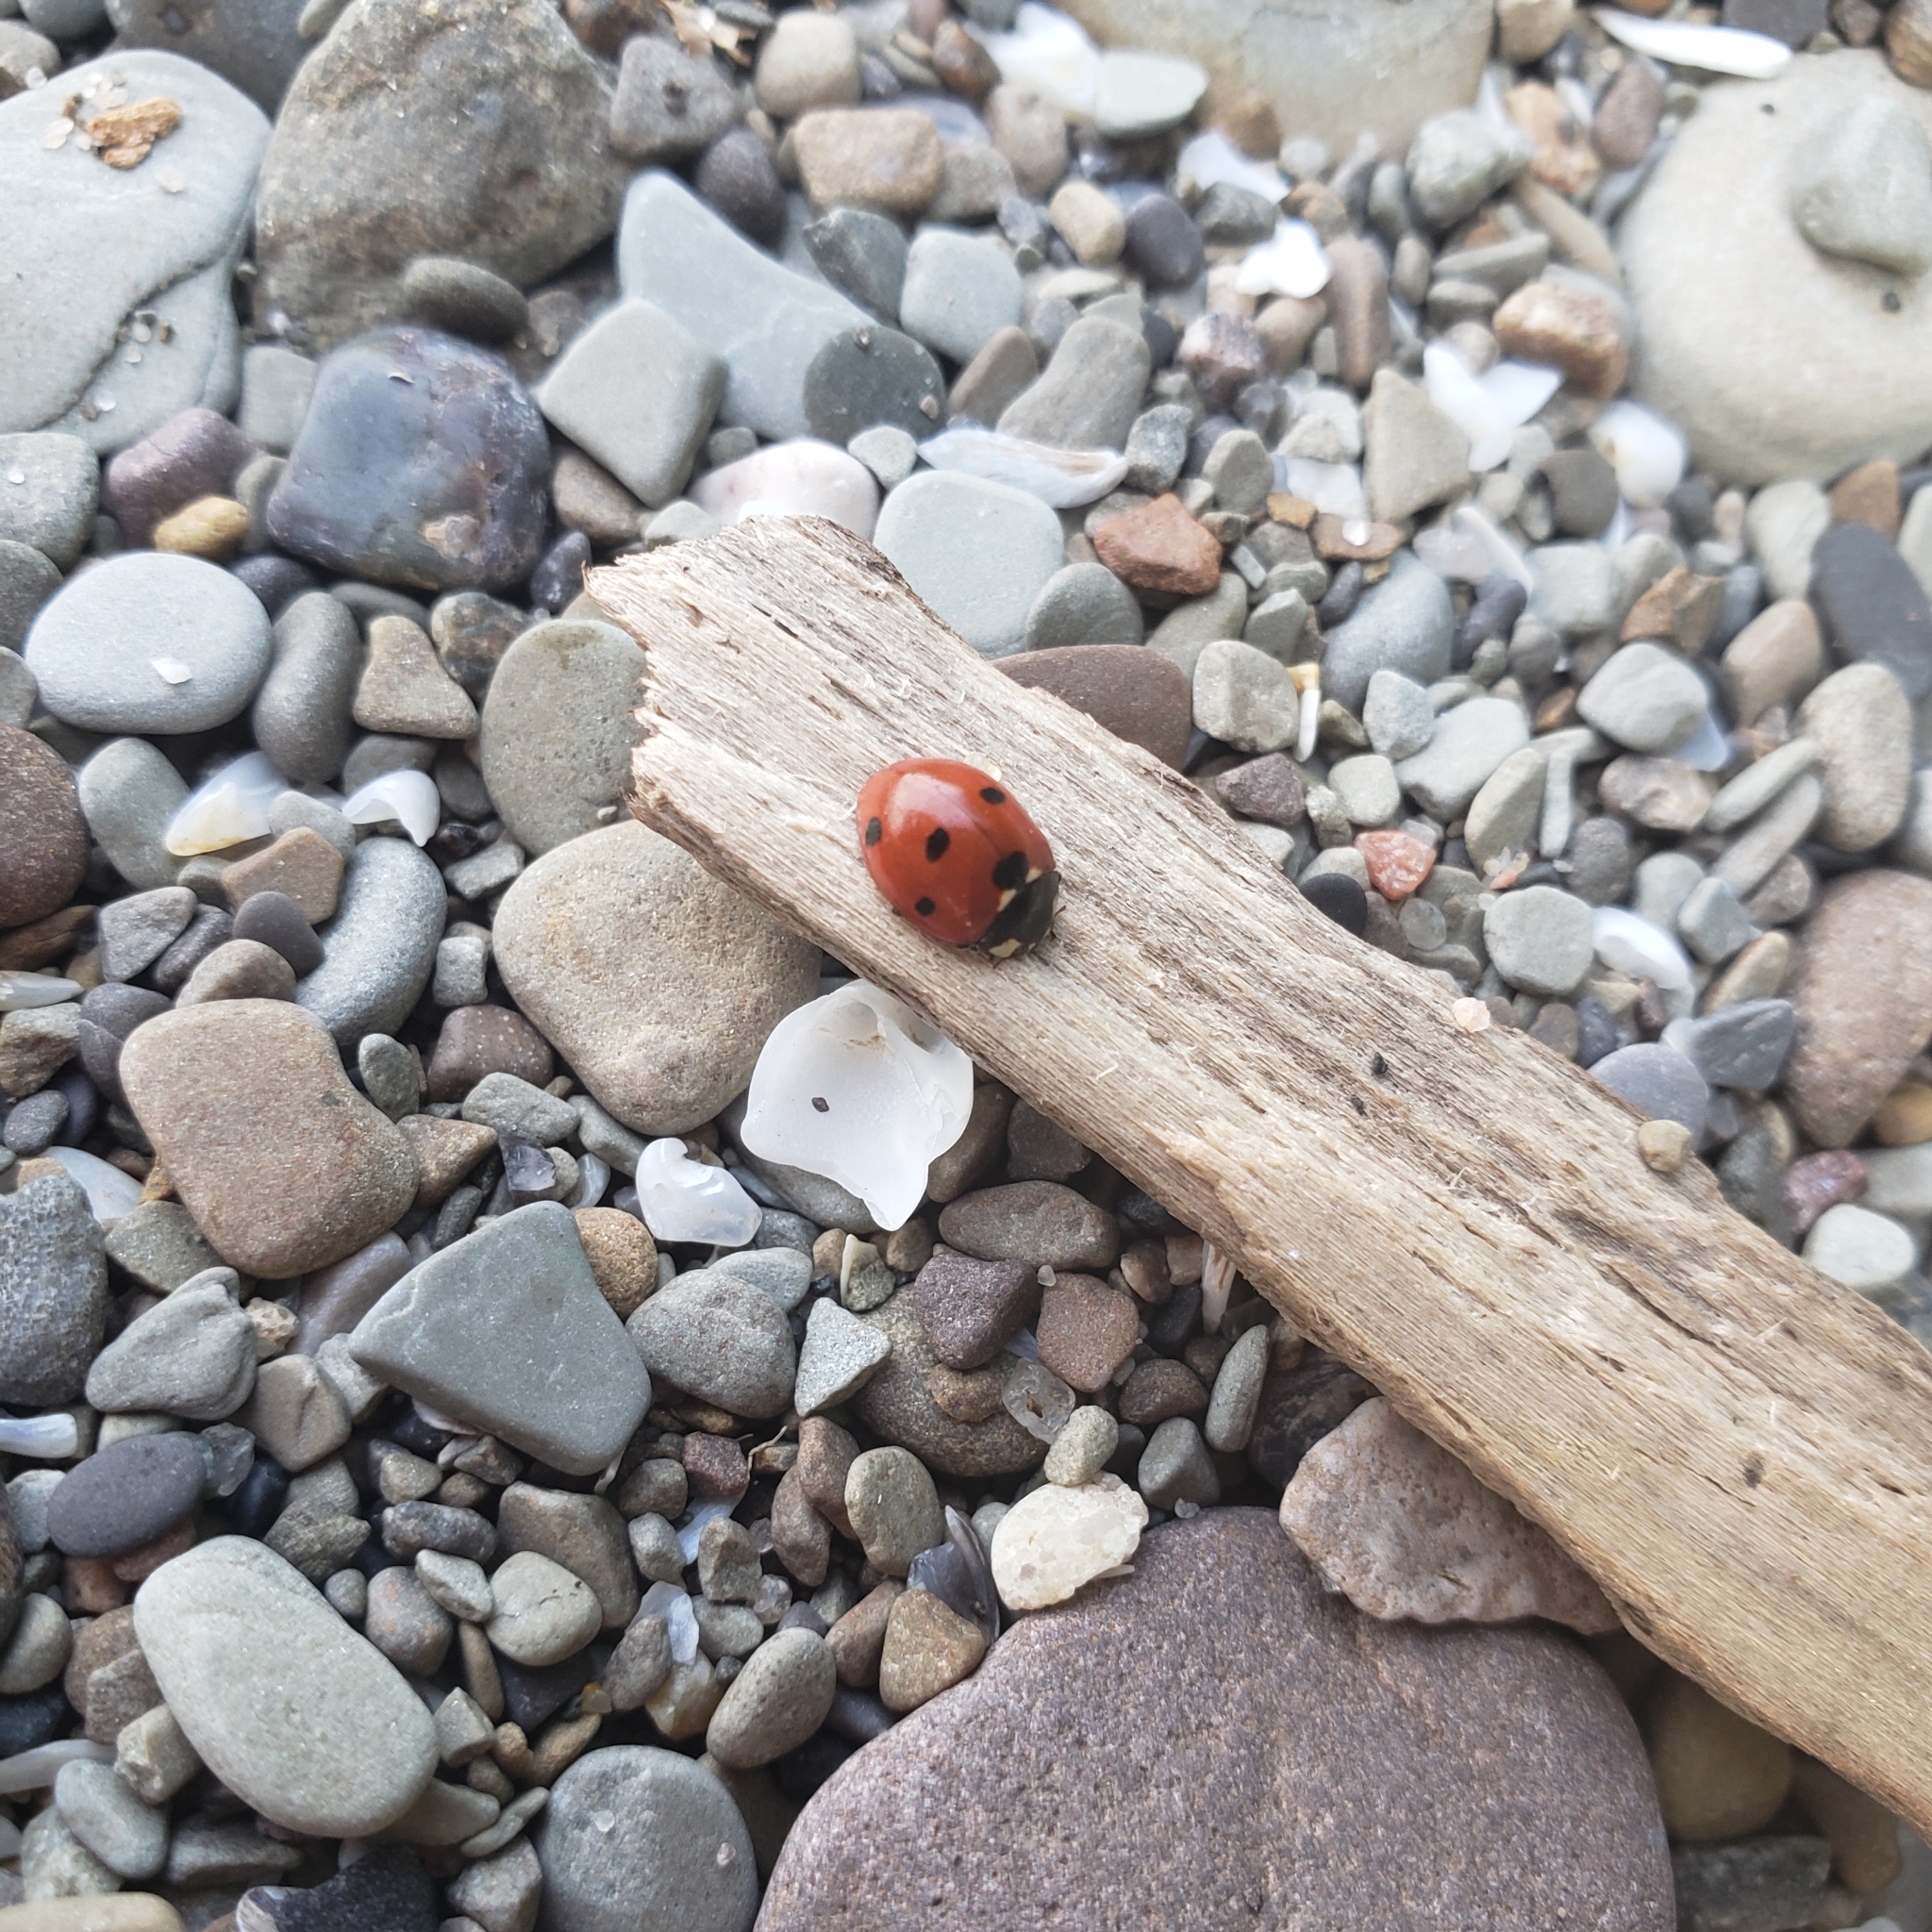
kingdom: Animalia
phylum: Arthropoda
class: Insecta
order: Coleoptera
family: Coccinellidae
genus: Coccinella
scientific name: Coccinella septempunctata
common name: Sevenspotted lady beetle
